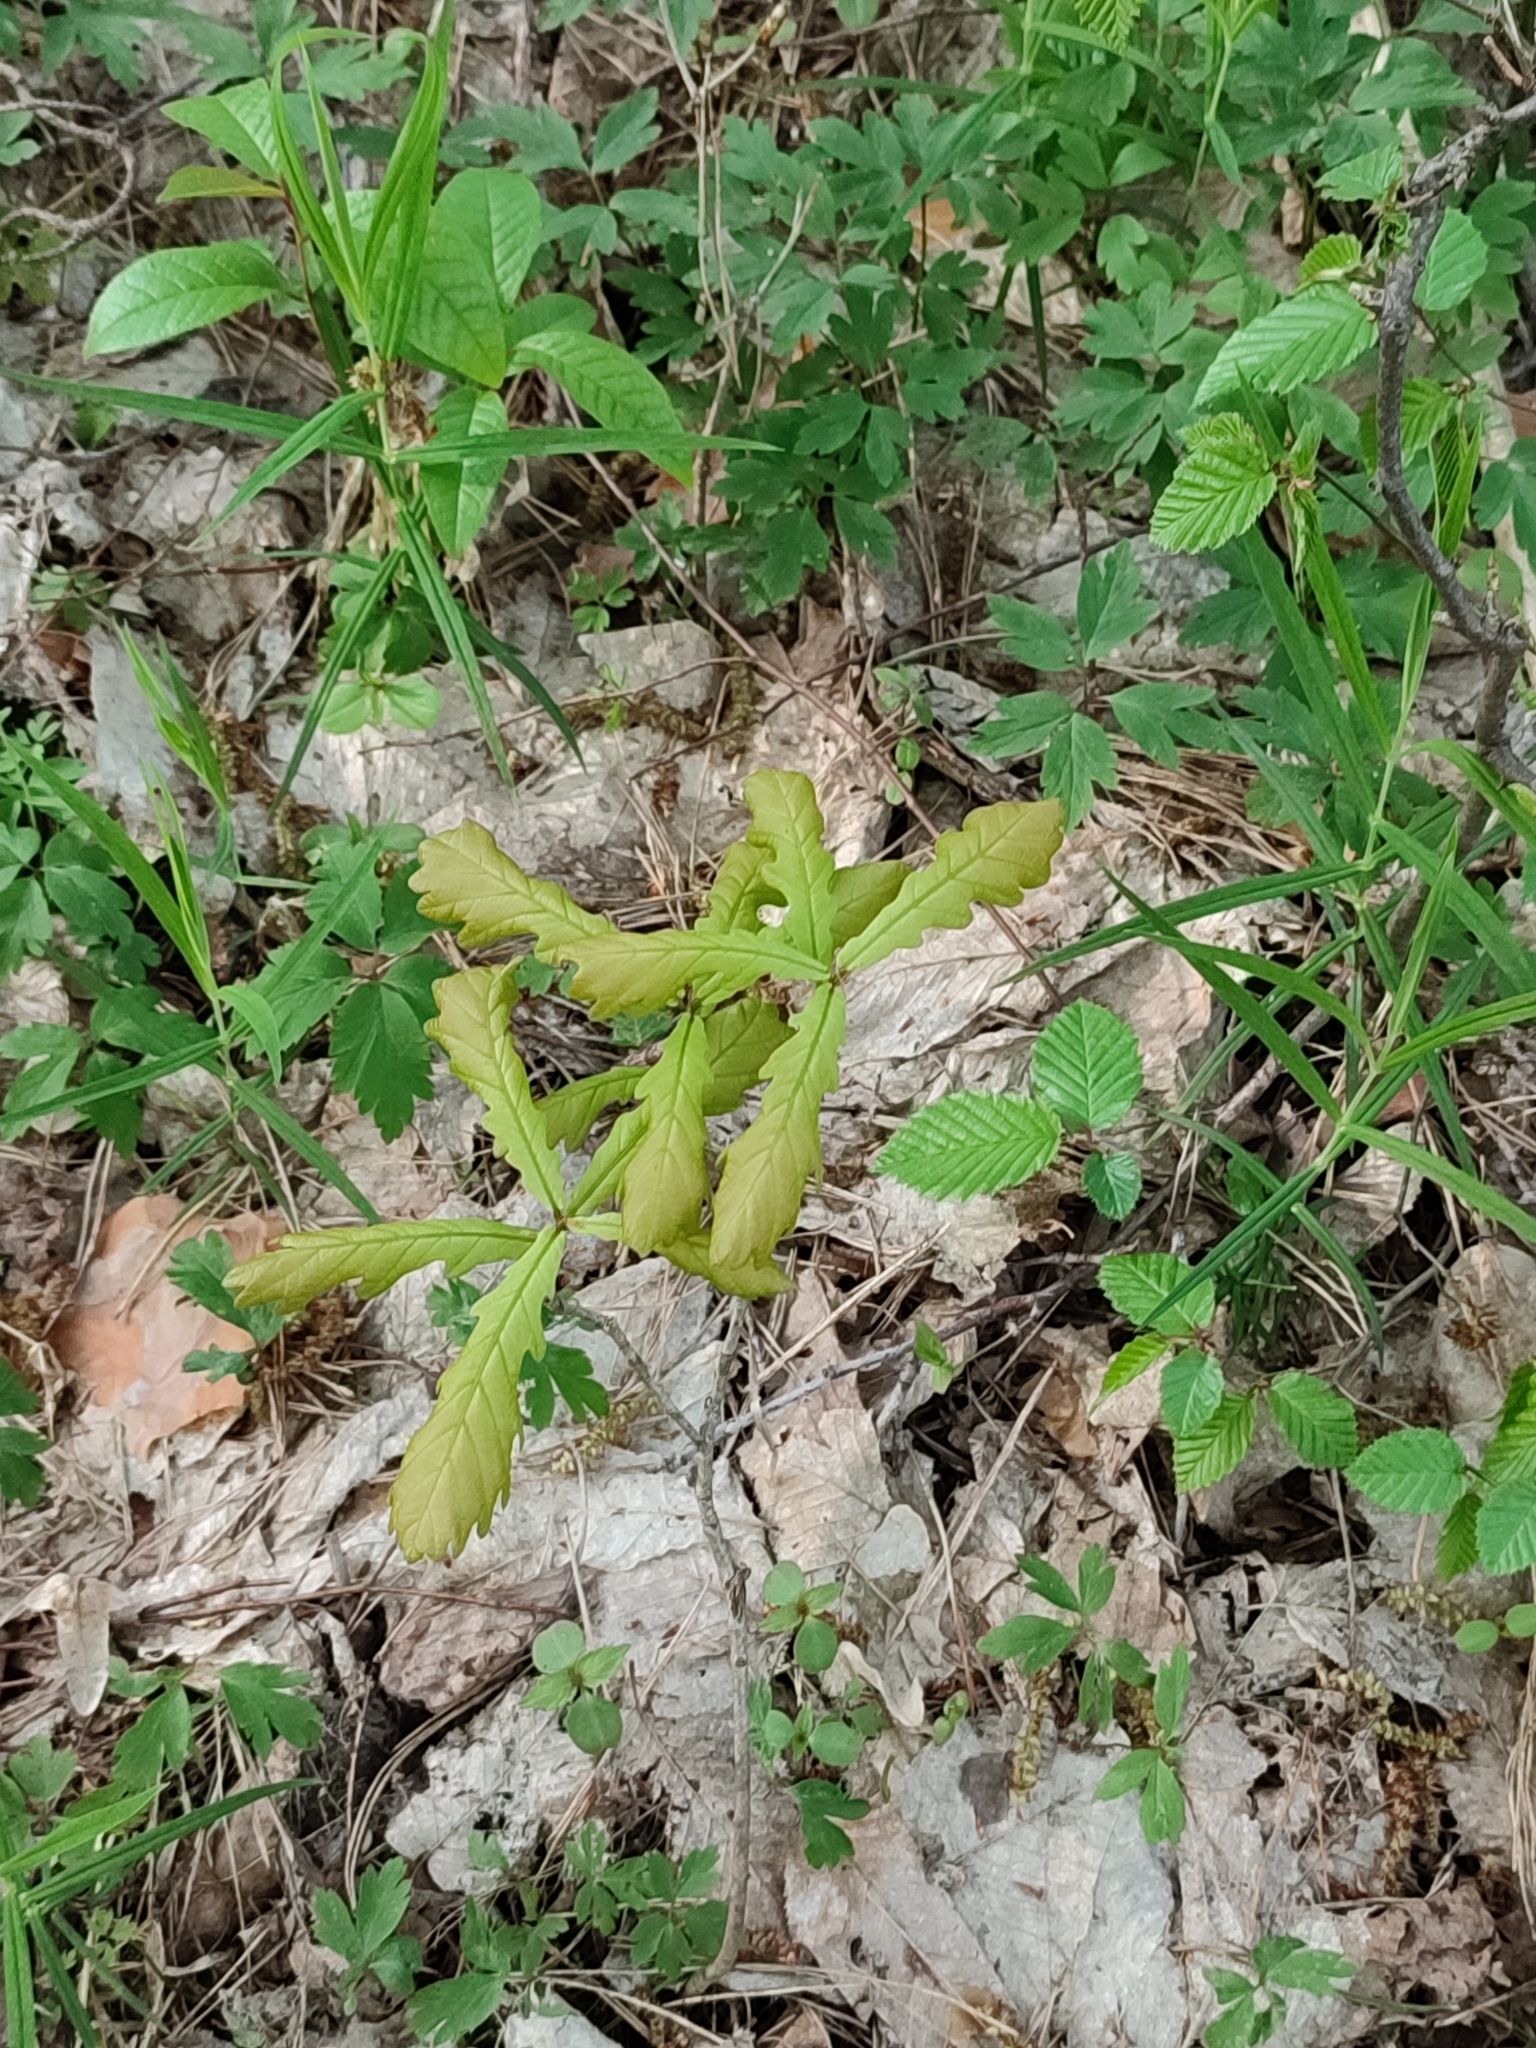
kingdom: Plantae
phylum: Tracheophyta
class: Magnoliopsida
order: Fagales
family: Fagaceae
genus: Quercus
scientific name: Quercus robur
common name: Pedunculate oak
